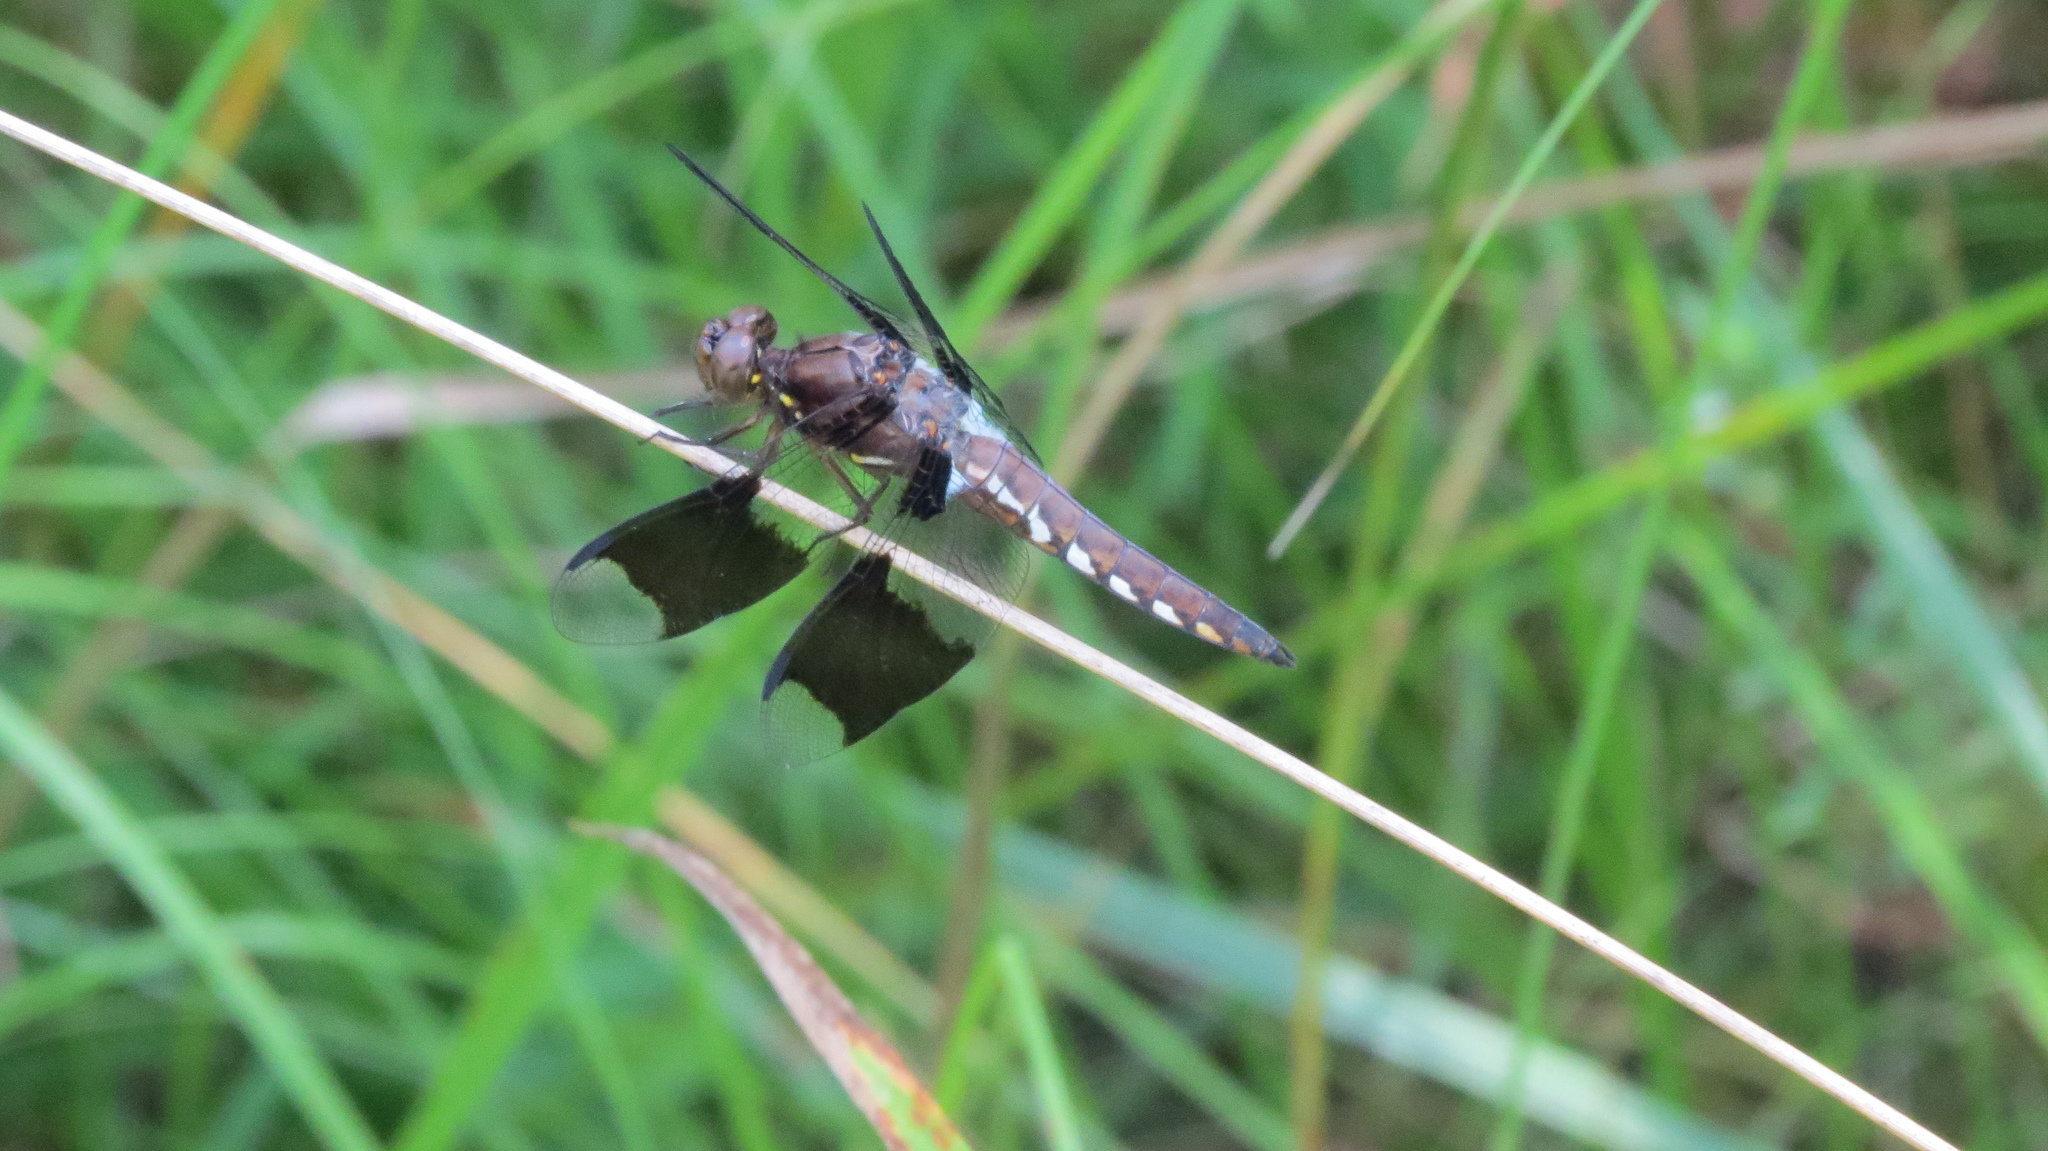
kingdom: Animalia
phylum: Arthropoda
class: Insecta
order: Odonata
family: Libellulidae
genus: Plathemis
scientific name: Plathemis lydia
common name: Common whitetail
